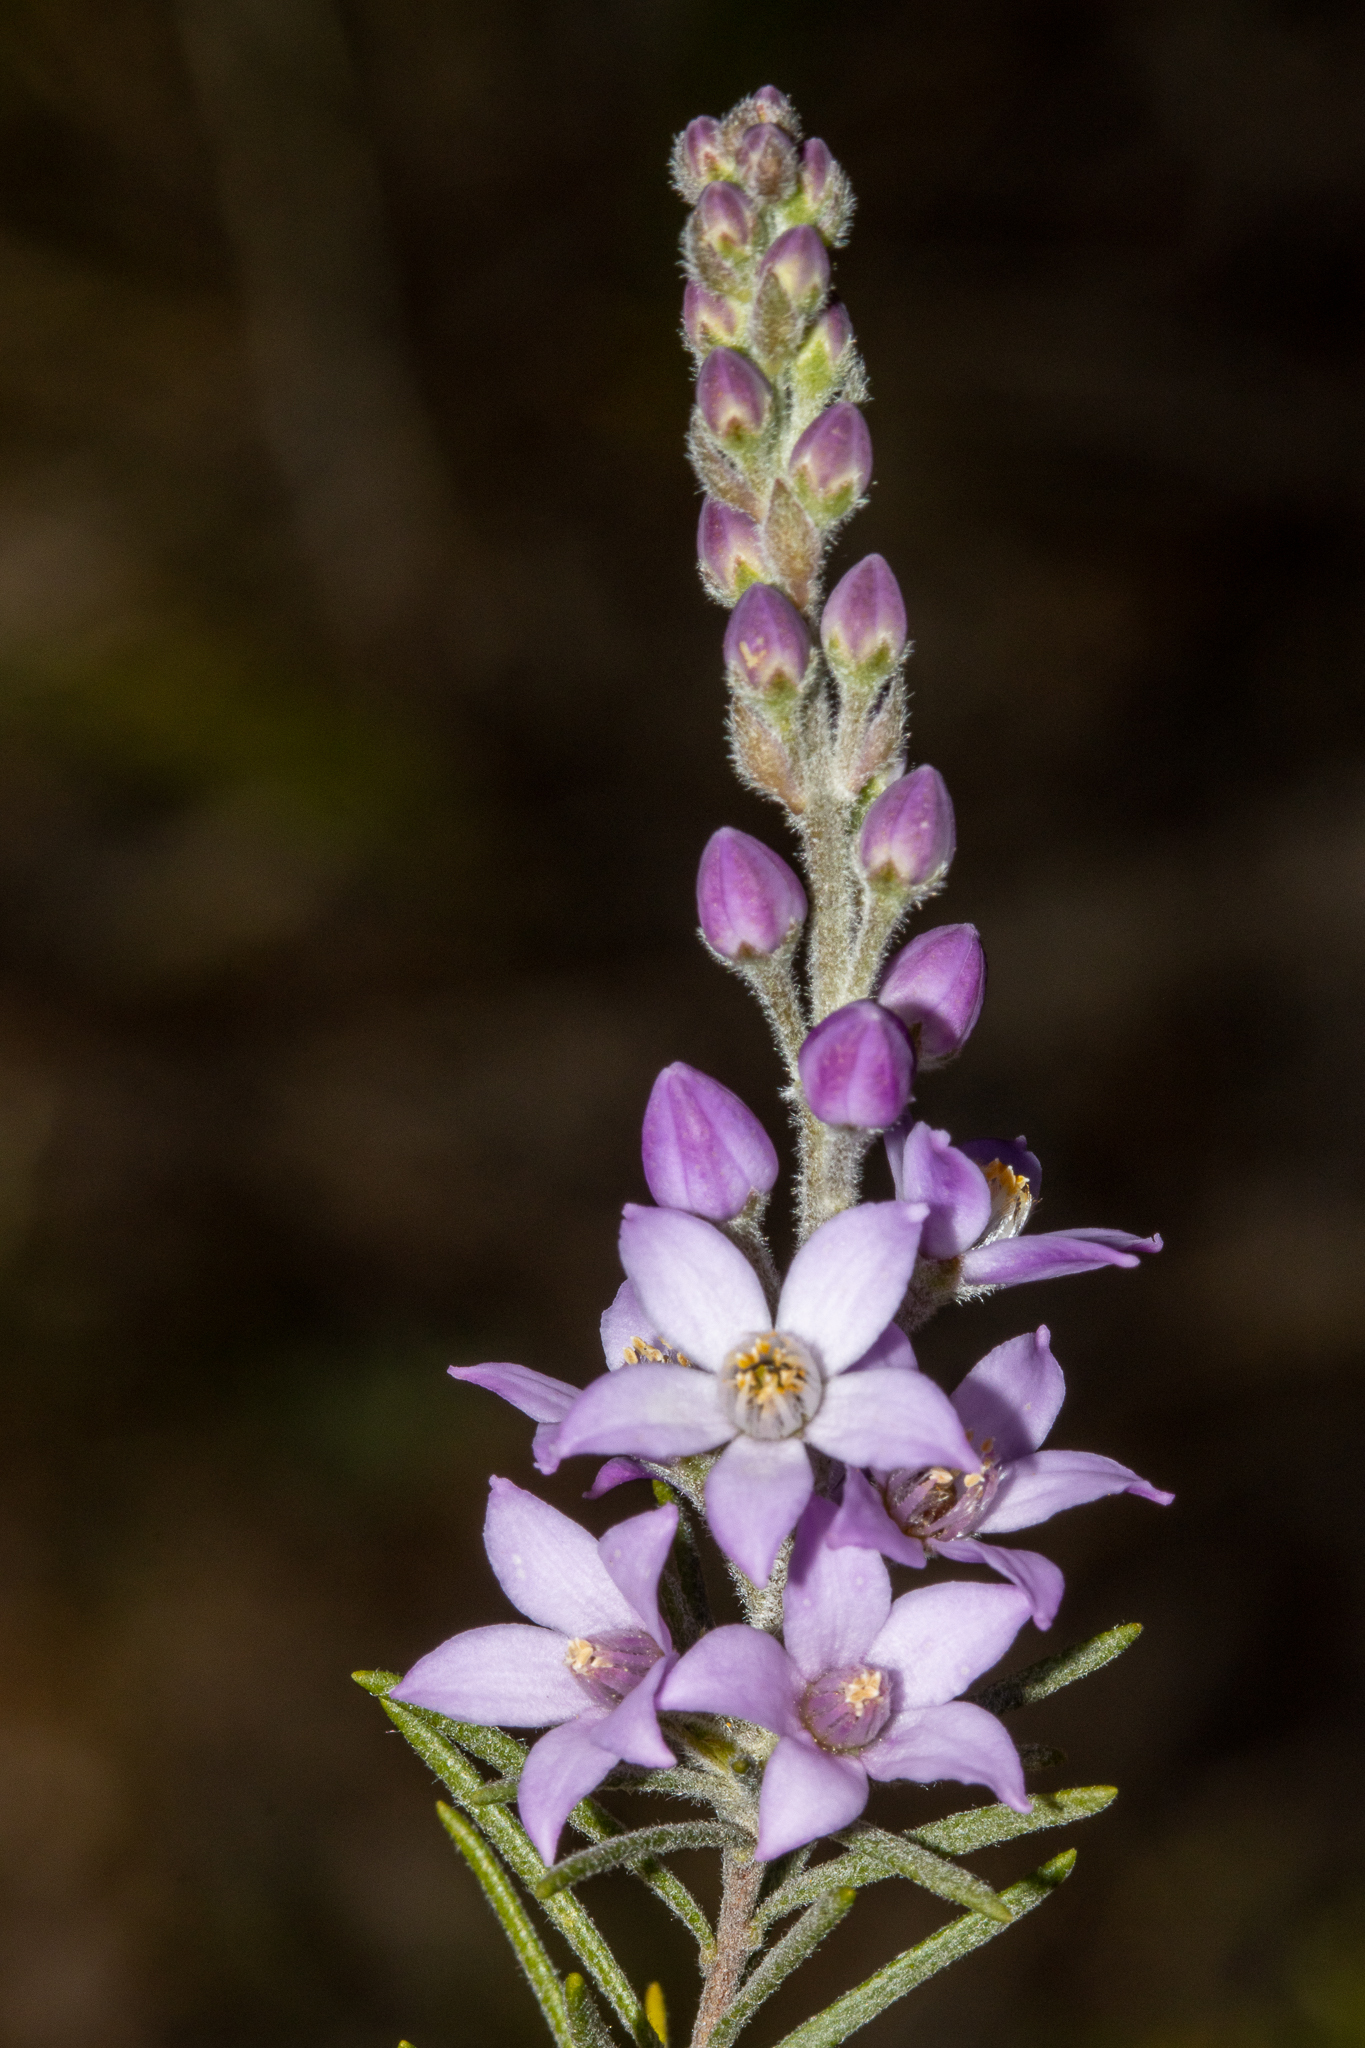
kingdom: Plantae
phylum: Tracheophyta
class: Magnoliopsida
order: Sapindales
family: Rutaceae
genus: Philotheca
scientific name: Philotheca spicata
